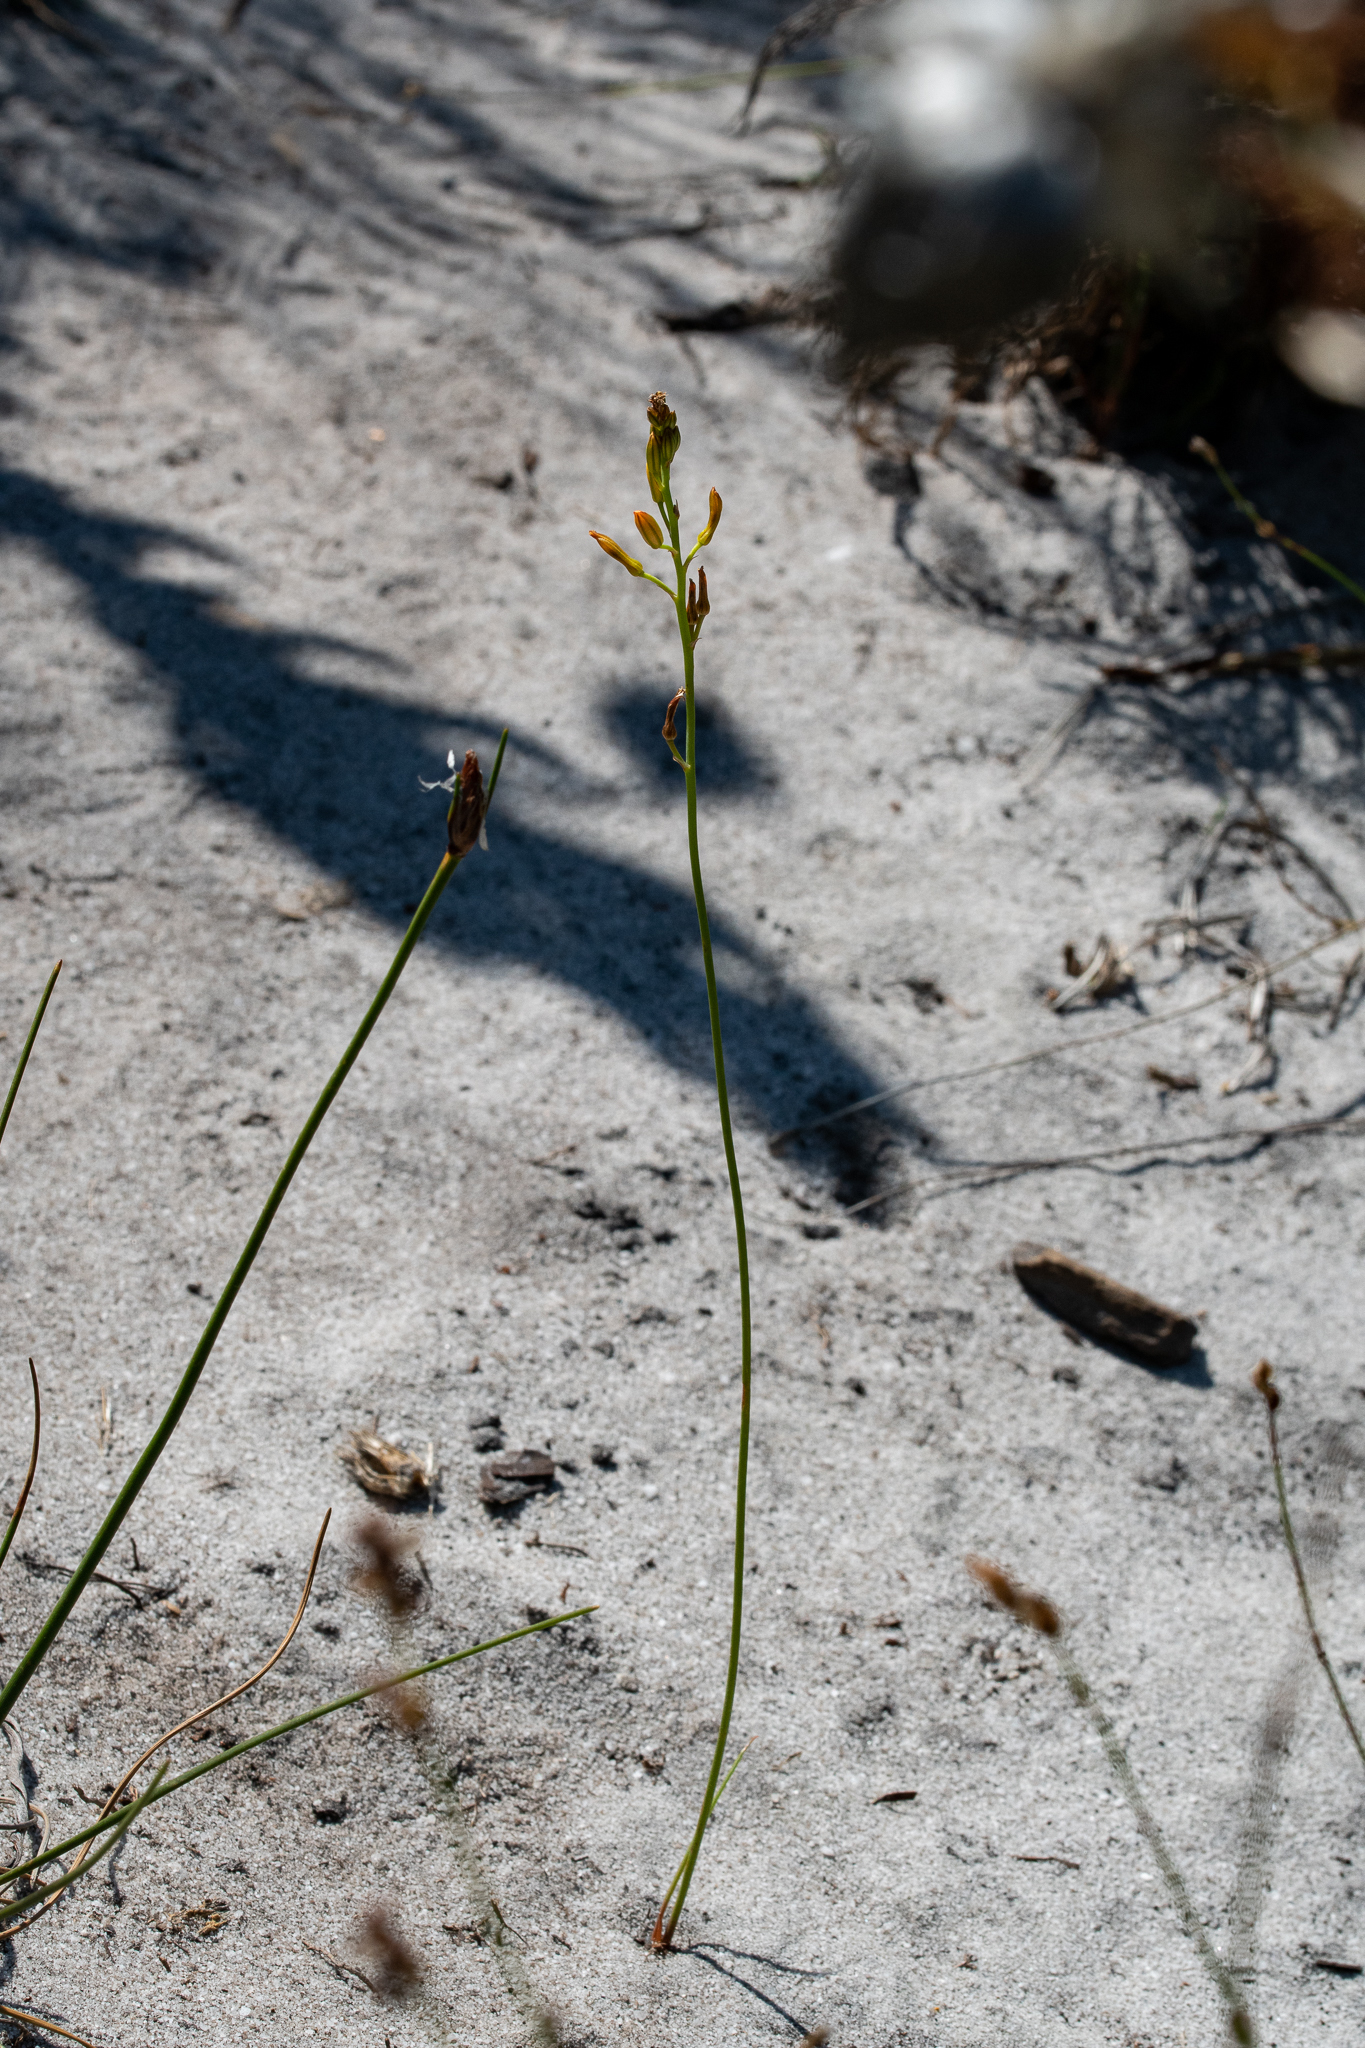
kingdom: Plantae
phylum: Tracheophyta
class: Liliopsida
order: Asparagales
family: Asphodelaceae
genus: Bulbine
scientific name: Bulbine favosa
